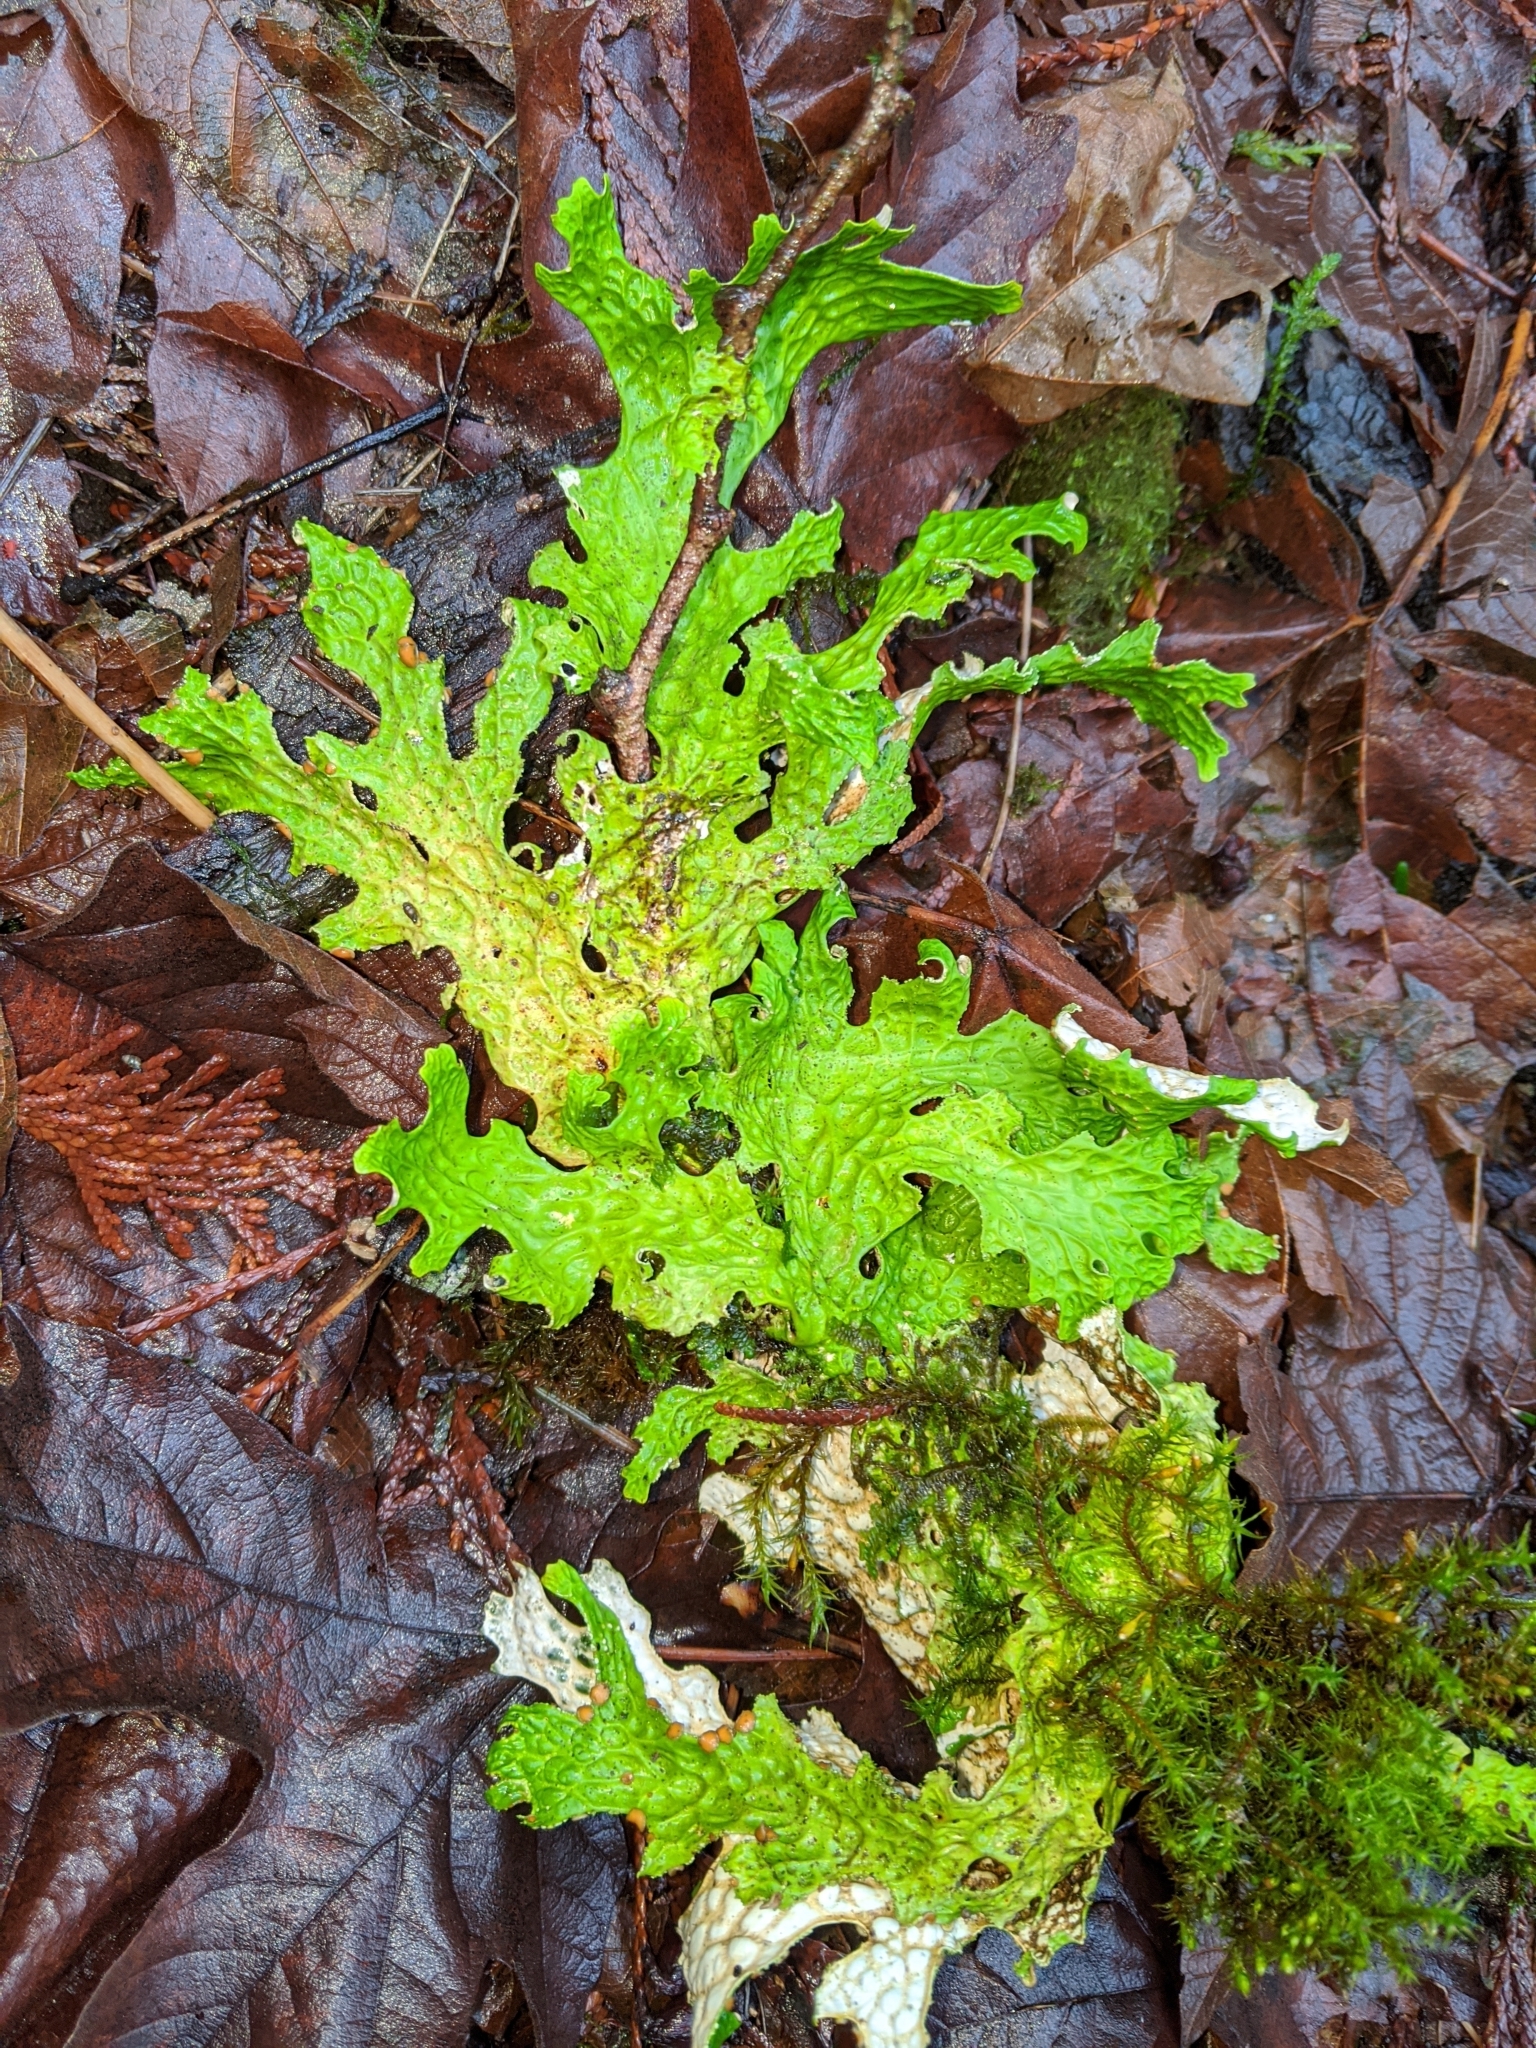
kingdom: Fungi
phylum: Ascomycota
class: Lecanoromycetes
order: Peltigerales
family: Lobariaceae
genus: Lobaria
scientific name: Lobaria pulmonaria
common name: Lungwort
